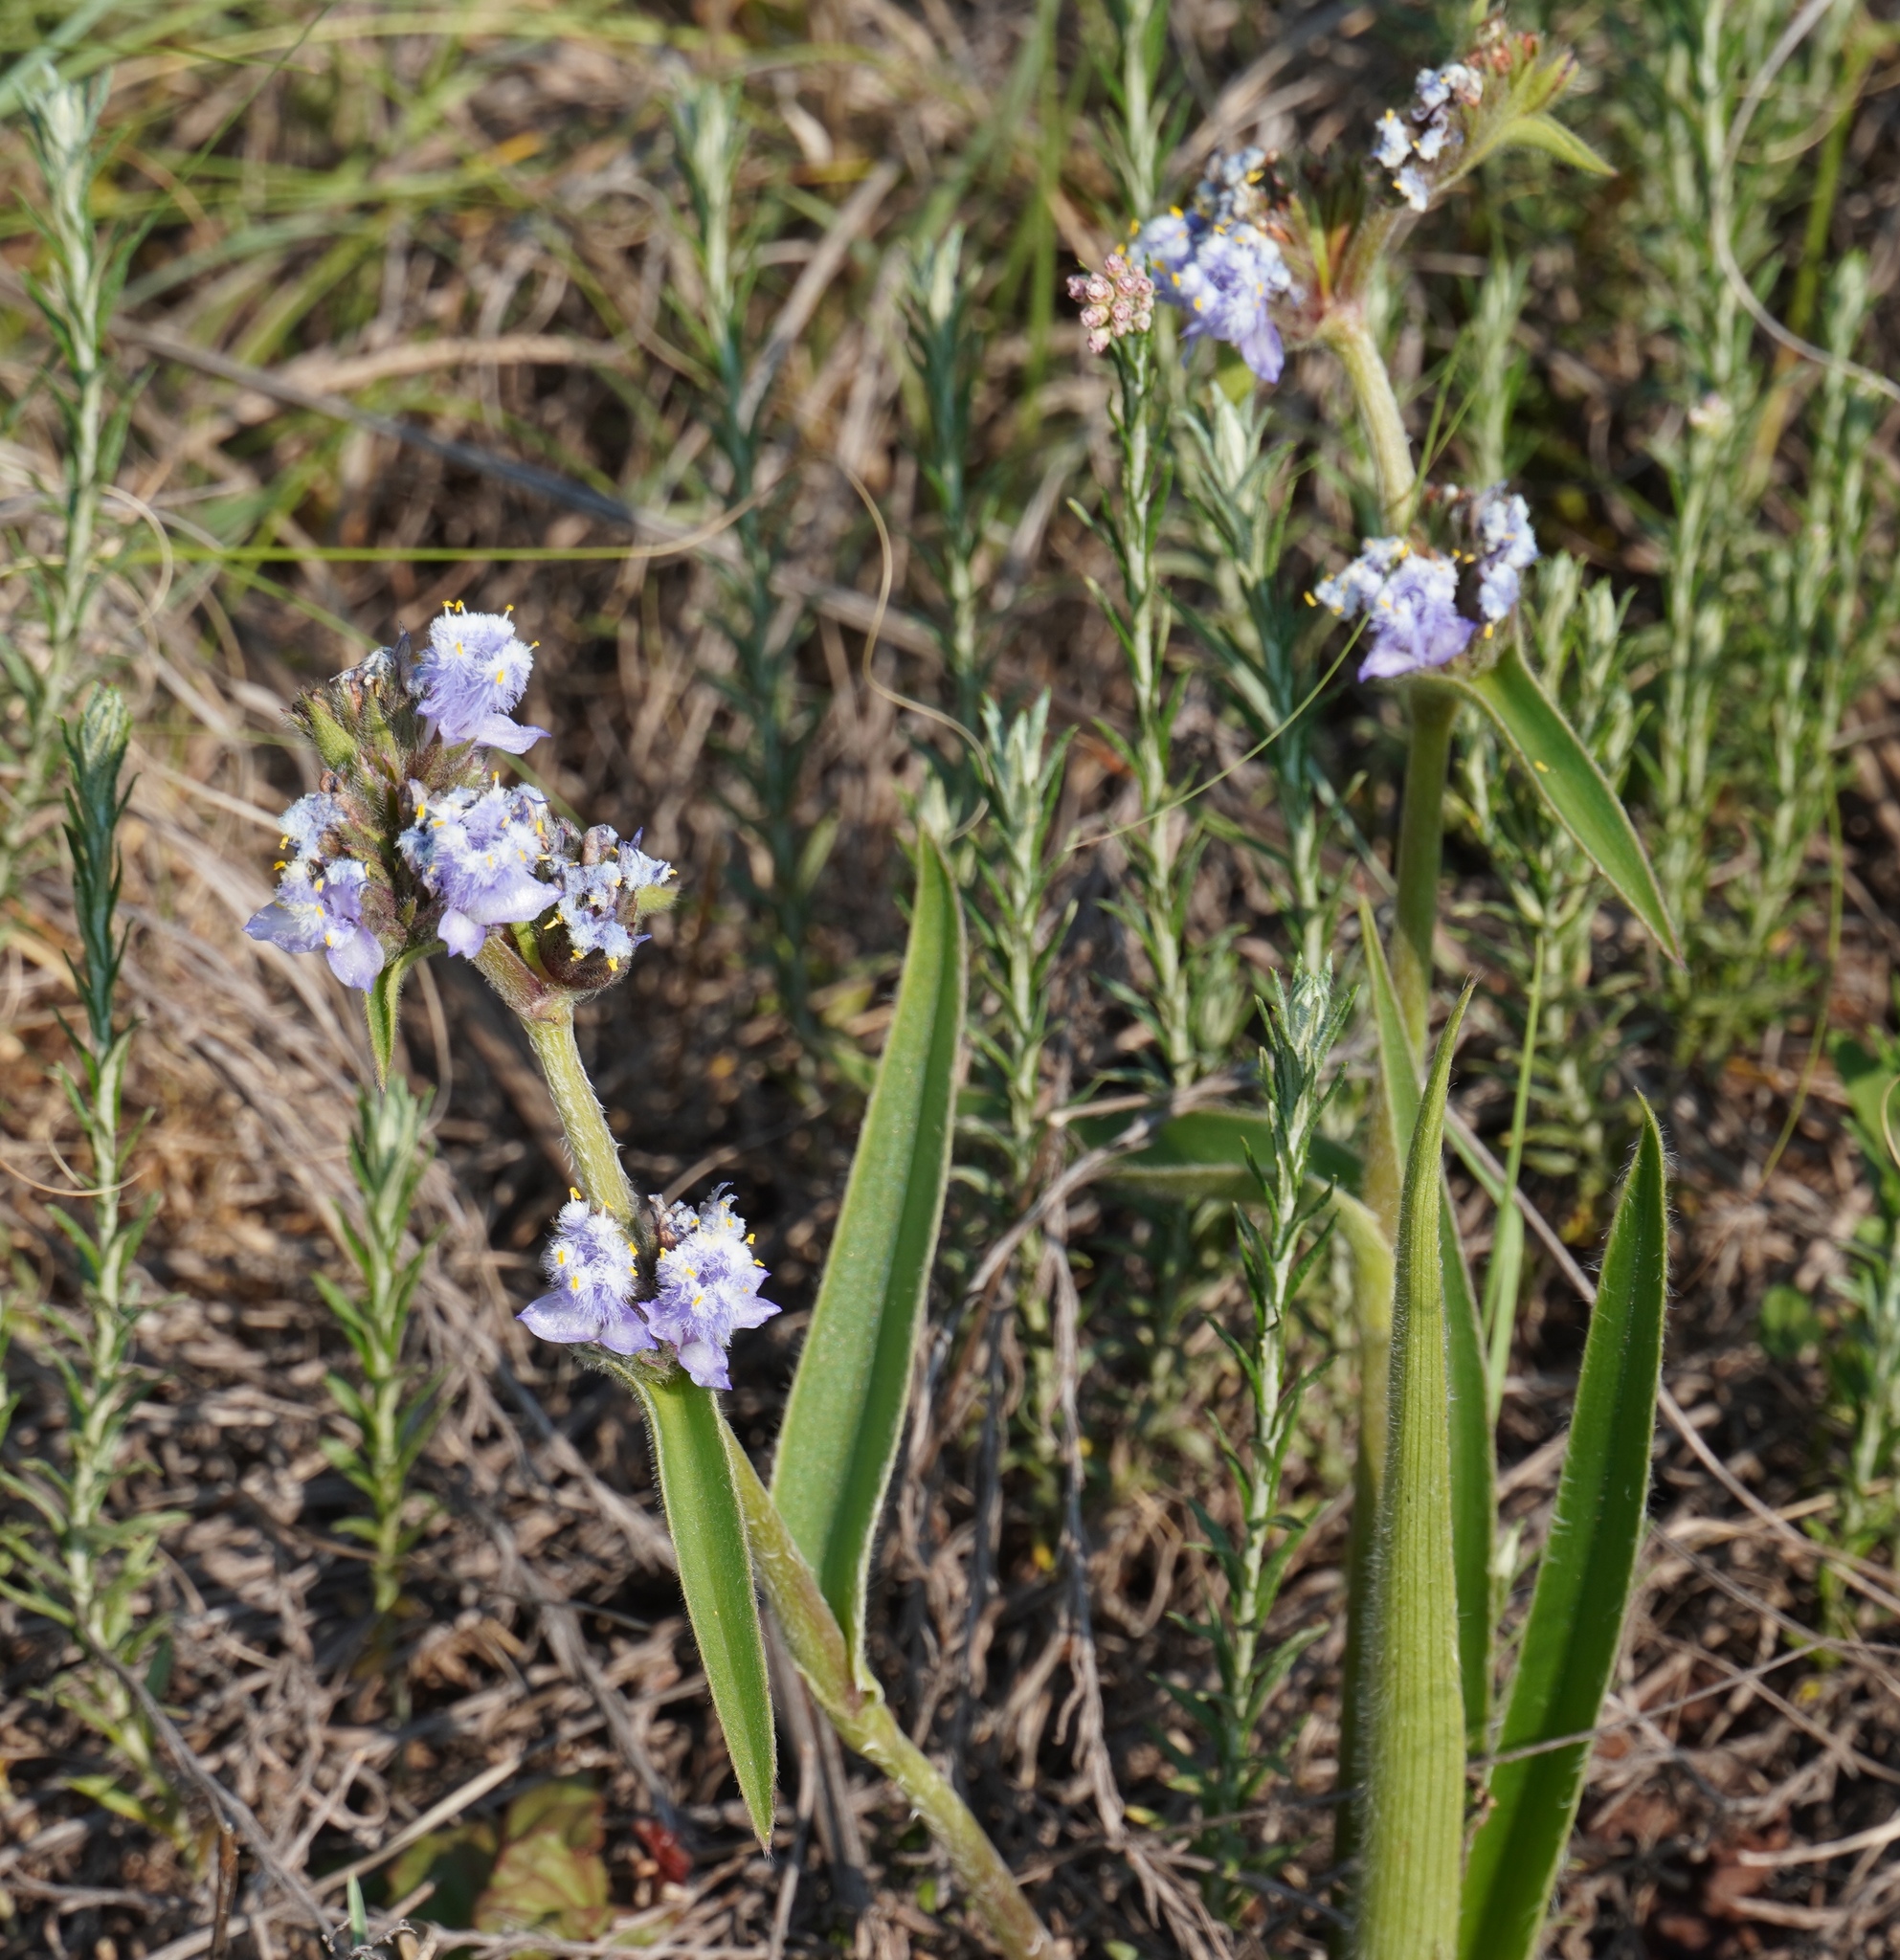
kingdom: Plantae
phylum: Tracheophyta
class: Liliopsida
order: Commelinales
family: Commelinaceae
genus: Cyanotis
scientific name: Cyanotis speciosa
